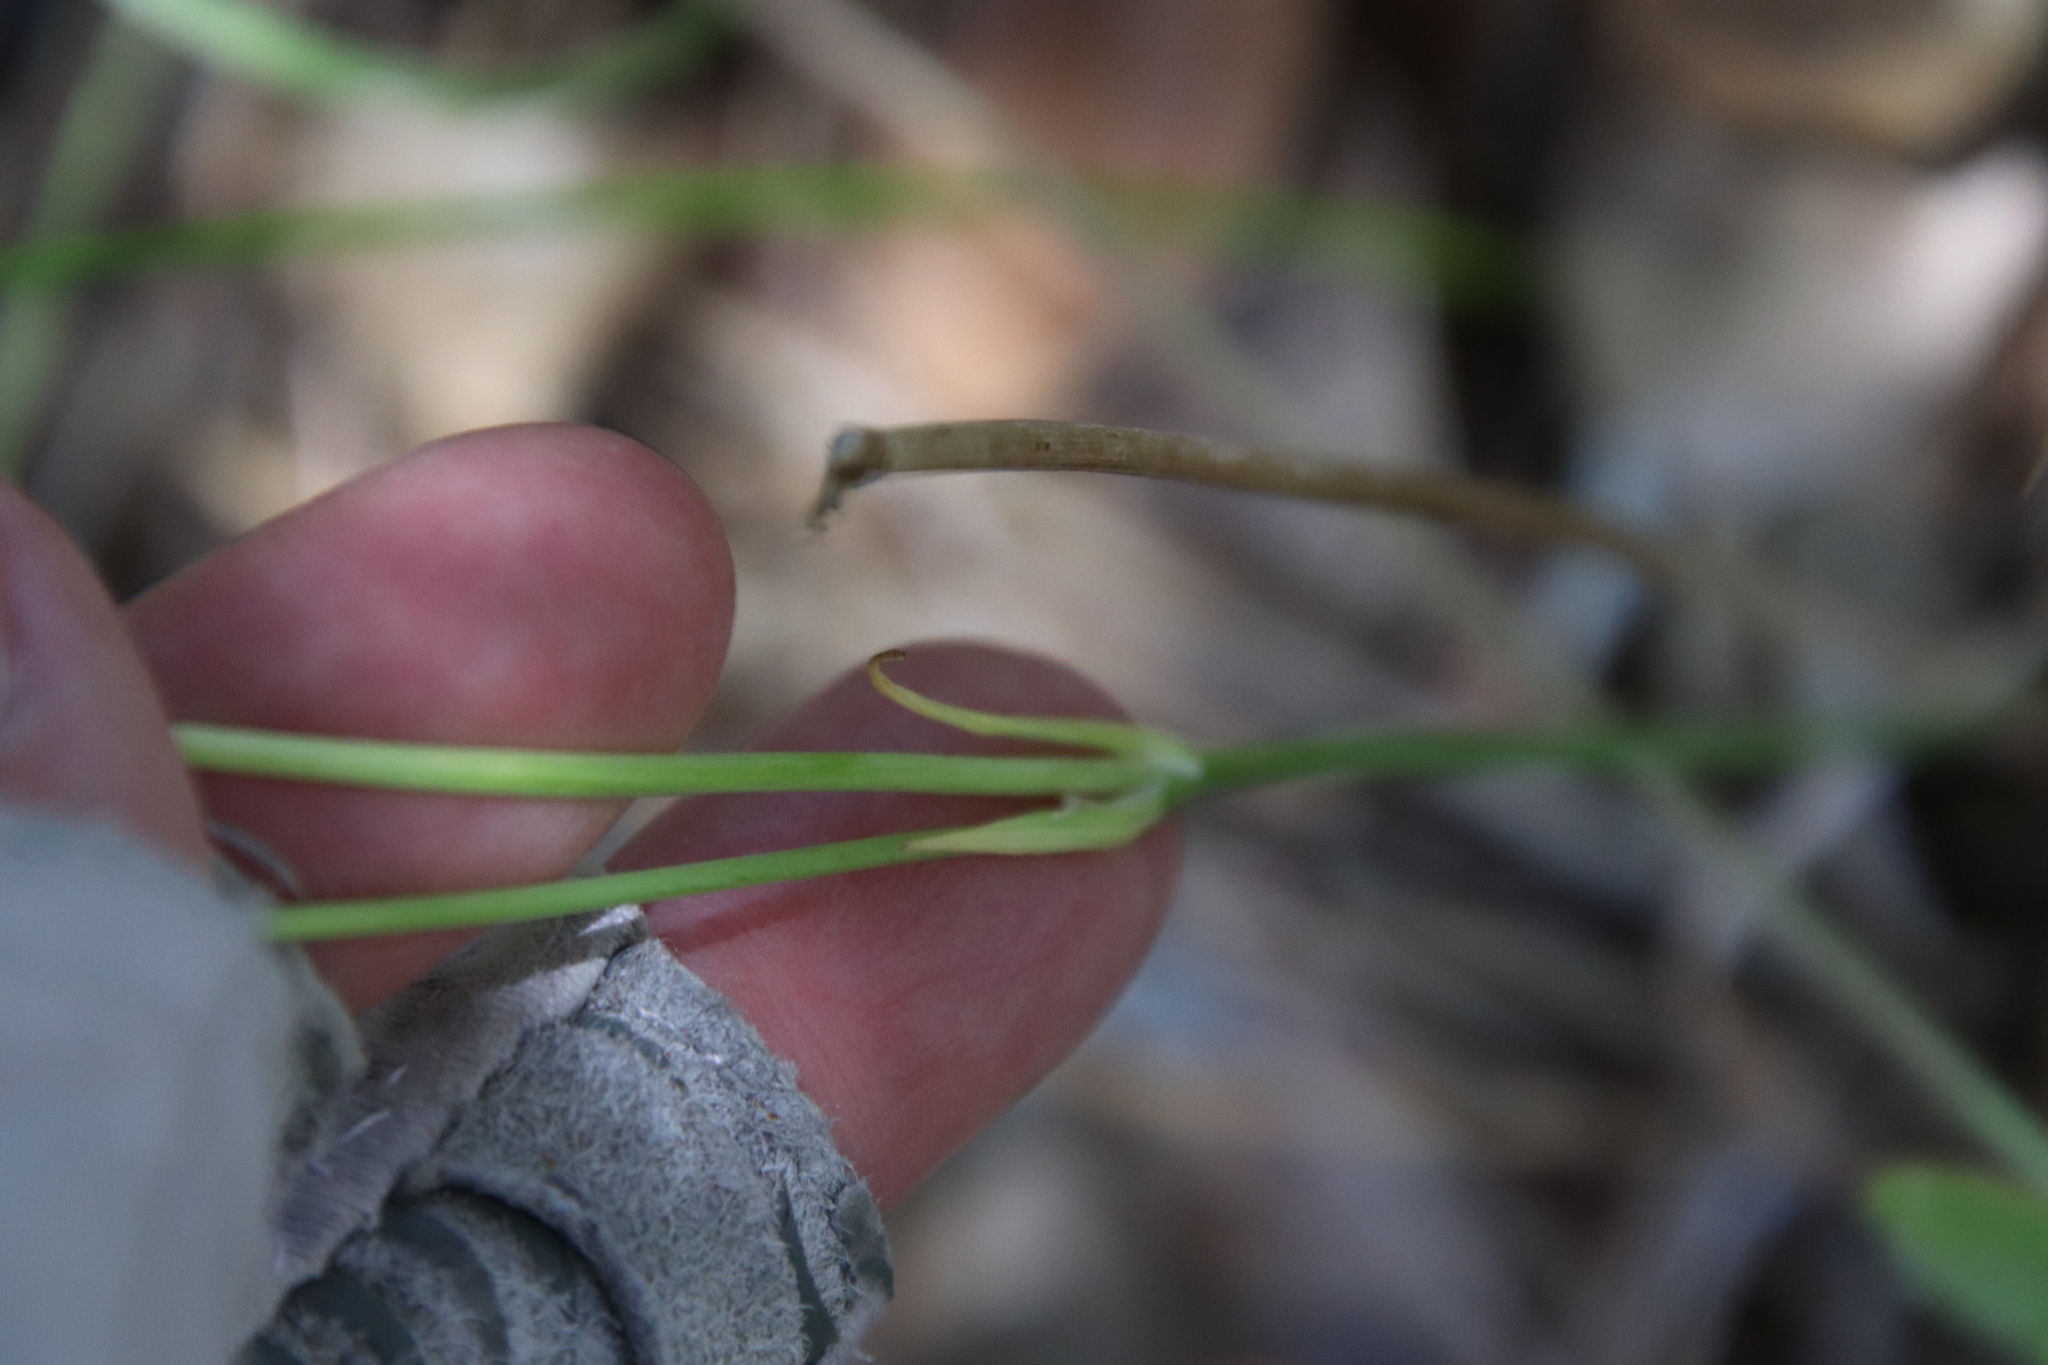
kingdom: Plantae
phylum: Tracheophyta
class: Liliopsida
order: Liliales
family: Liliaceae
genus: Calochortus
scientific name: Calochortus splendens
